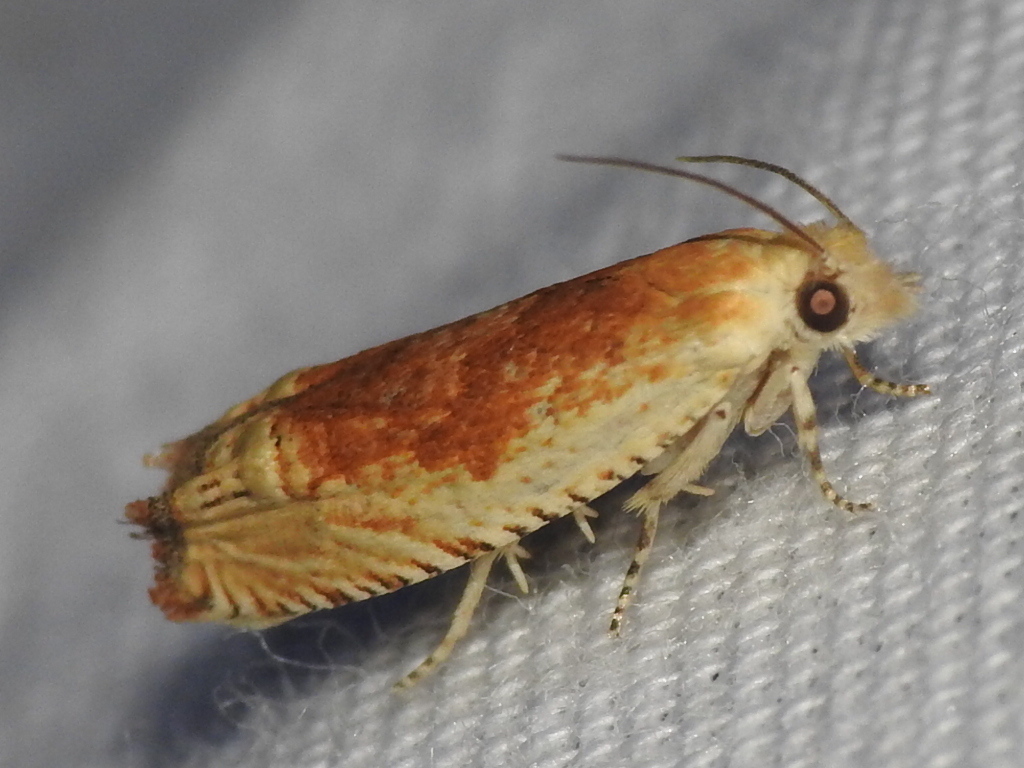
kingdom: Animalia
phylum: Arthropoda
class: Insecta
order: Lepidoptera
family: Tortricidae
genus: Eucosma
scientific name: Eucosma cruentana
